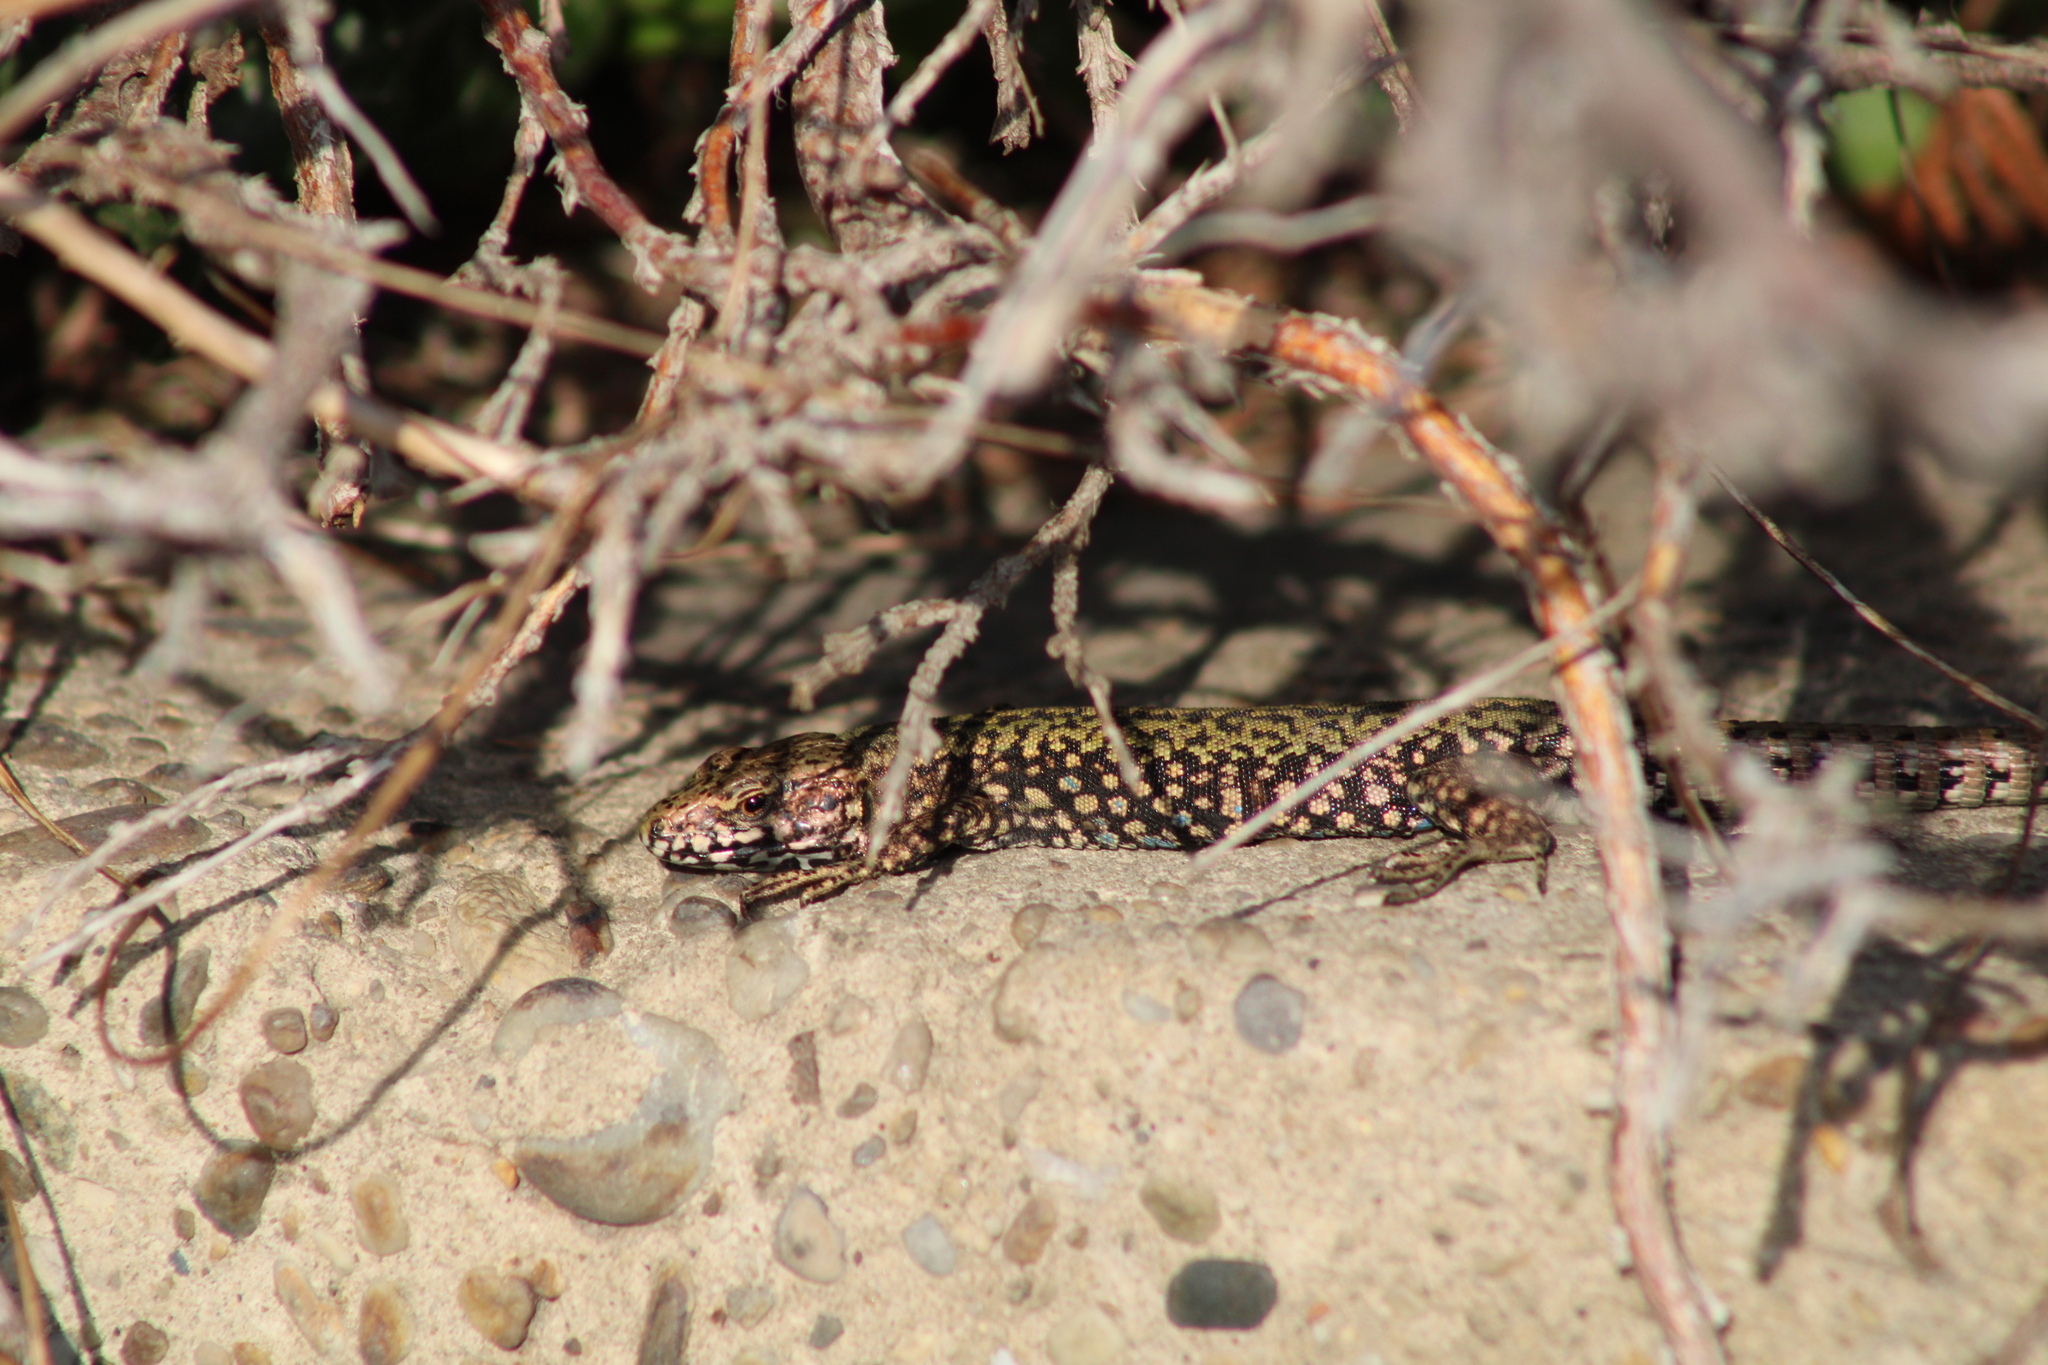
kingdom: Animalia
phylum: Chordata
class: Squamata
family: Lacertidae
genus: Podarcis
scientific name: Podarcis muralis
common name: Common wall lizard
